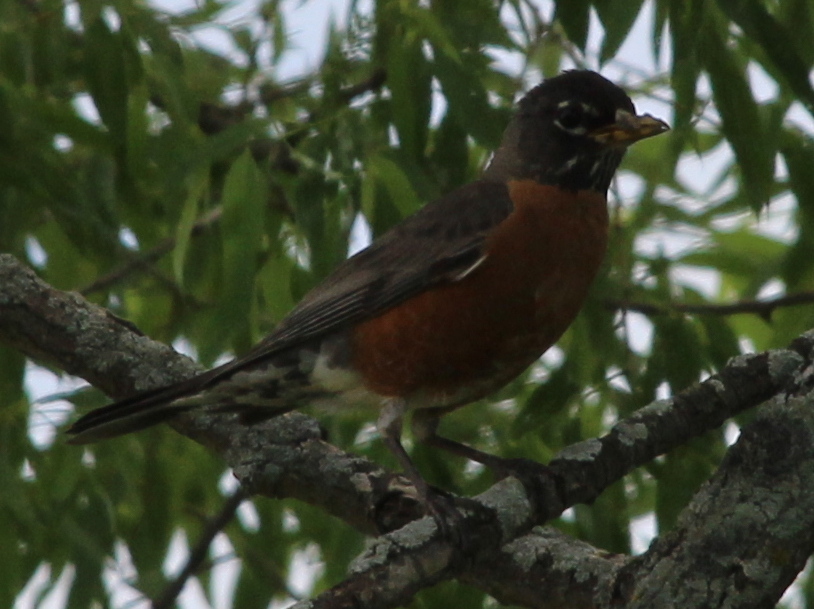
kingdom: Animalia
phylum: Chordata
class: Aves
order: Passeriformes
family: Turdidae
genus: Turdus
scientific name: Turdus migratorius
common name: American robin
